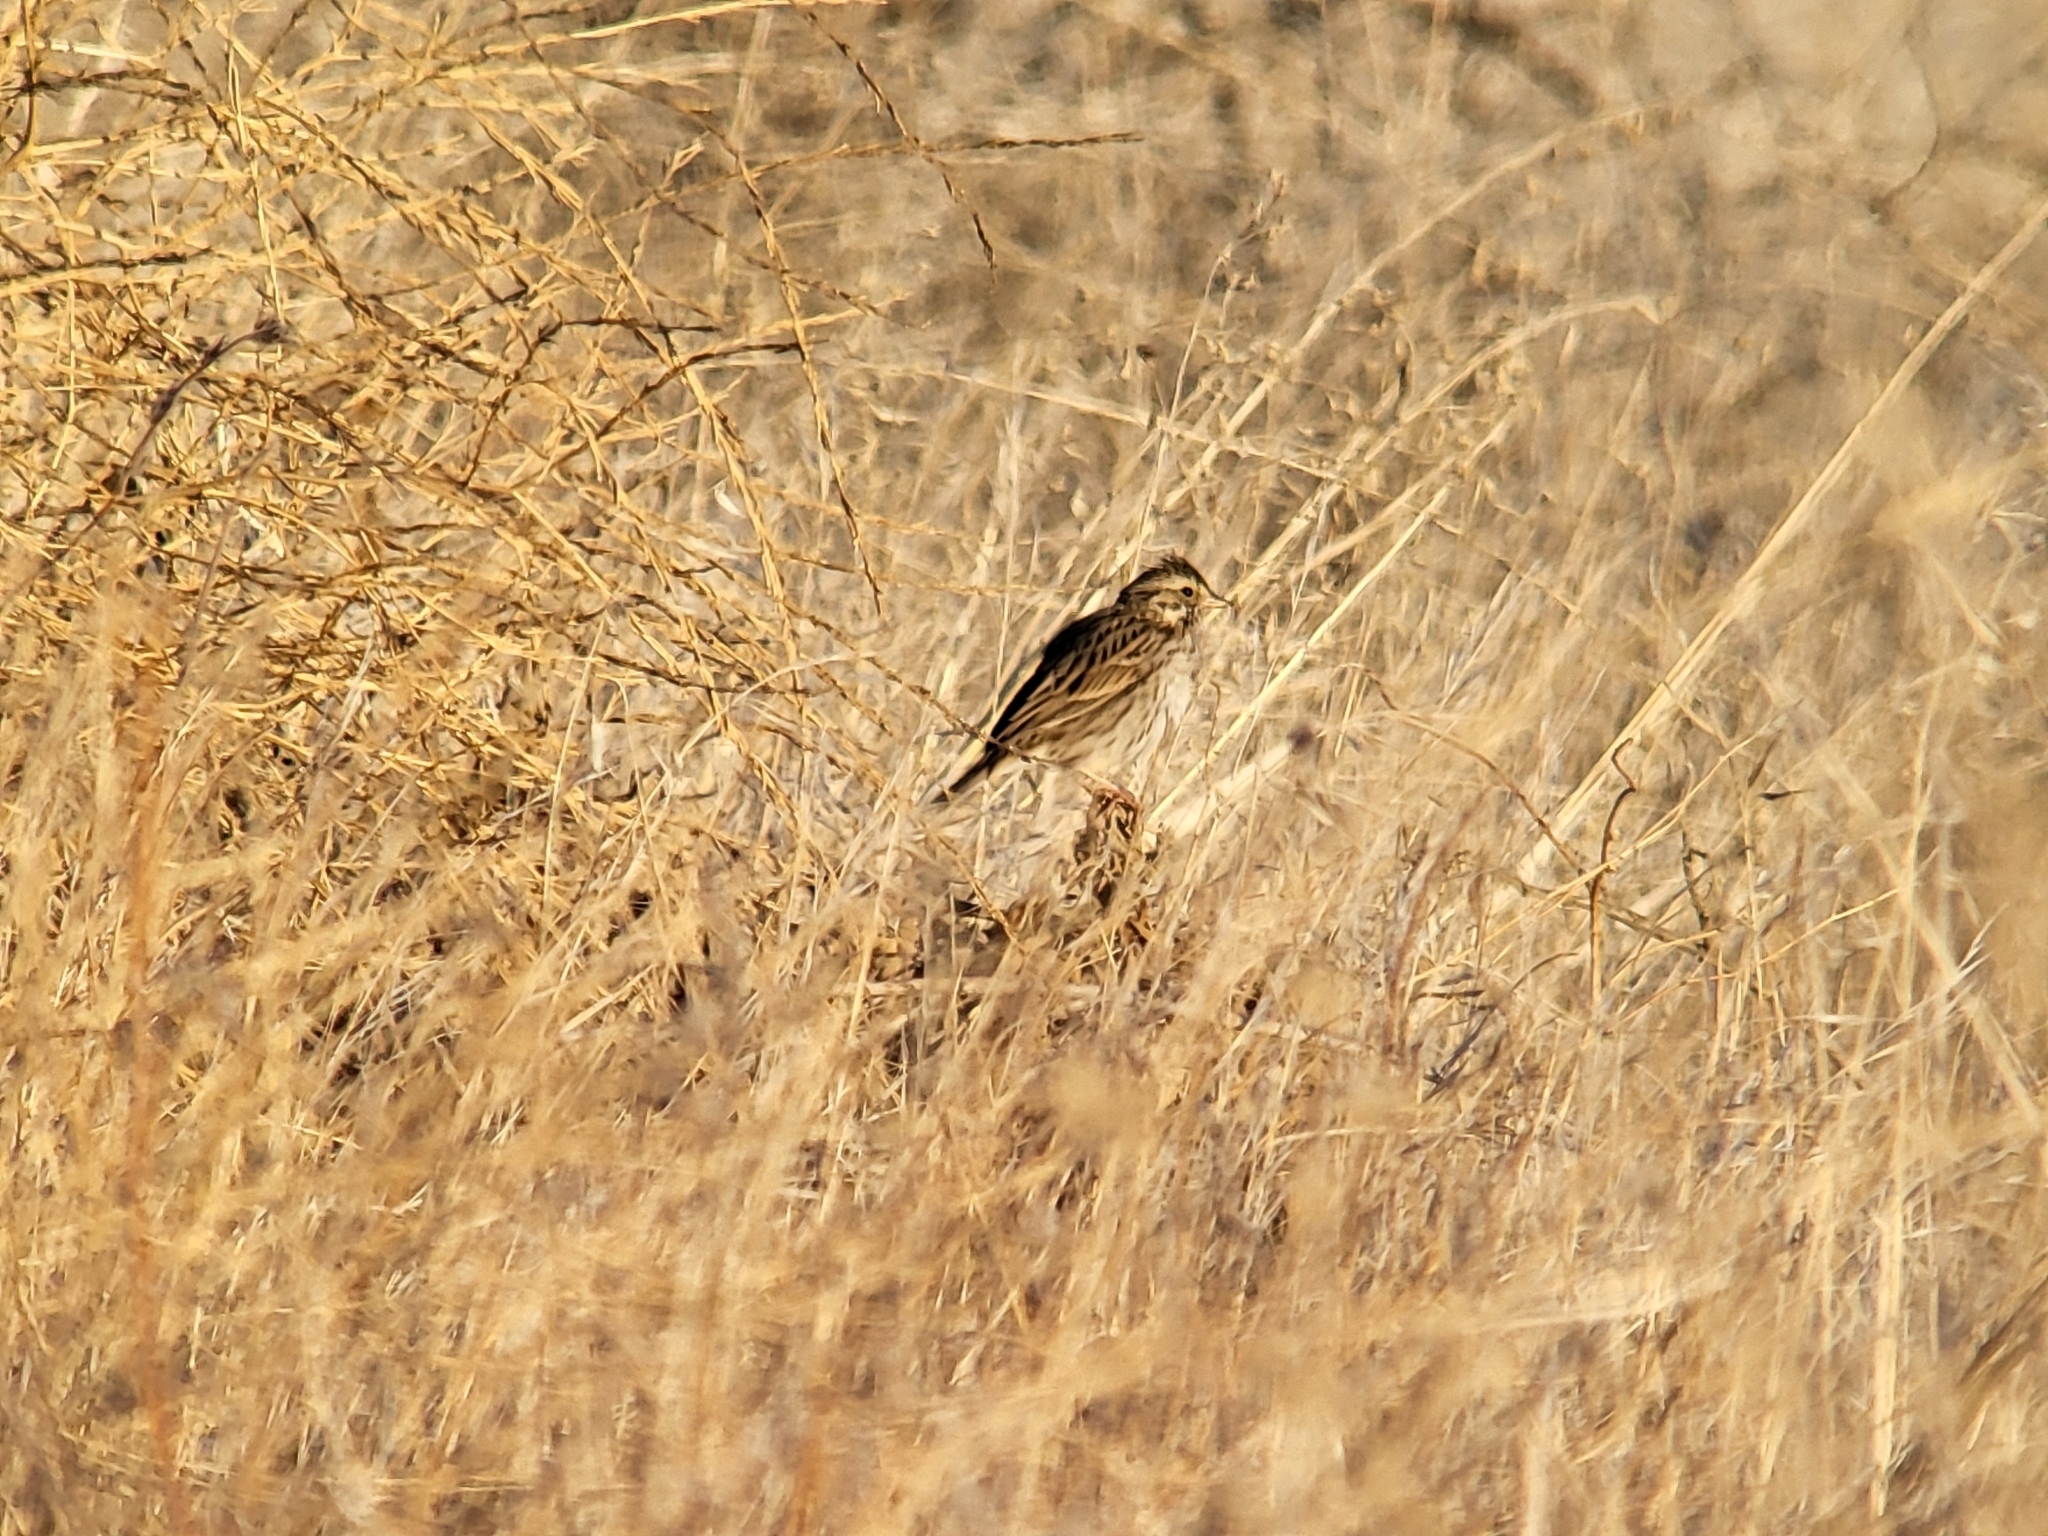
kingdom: Animalia
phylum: Chordata
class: Aves
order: Passeriformes
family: Passerellidae
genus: Passerculus
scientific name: Passerculus sandwichensis
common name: Savannah sparrow
